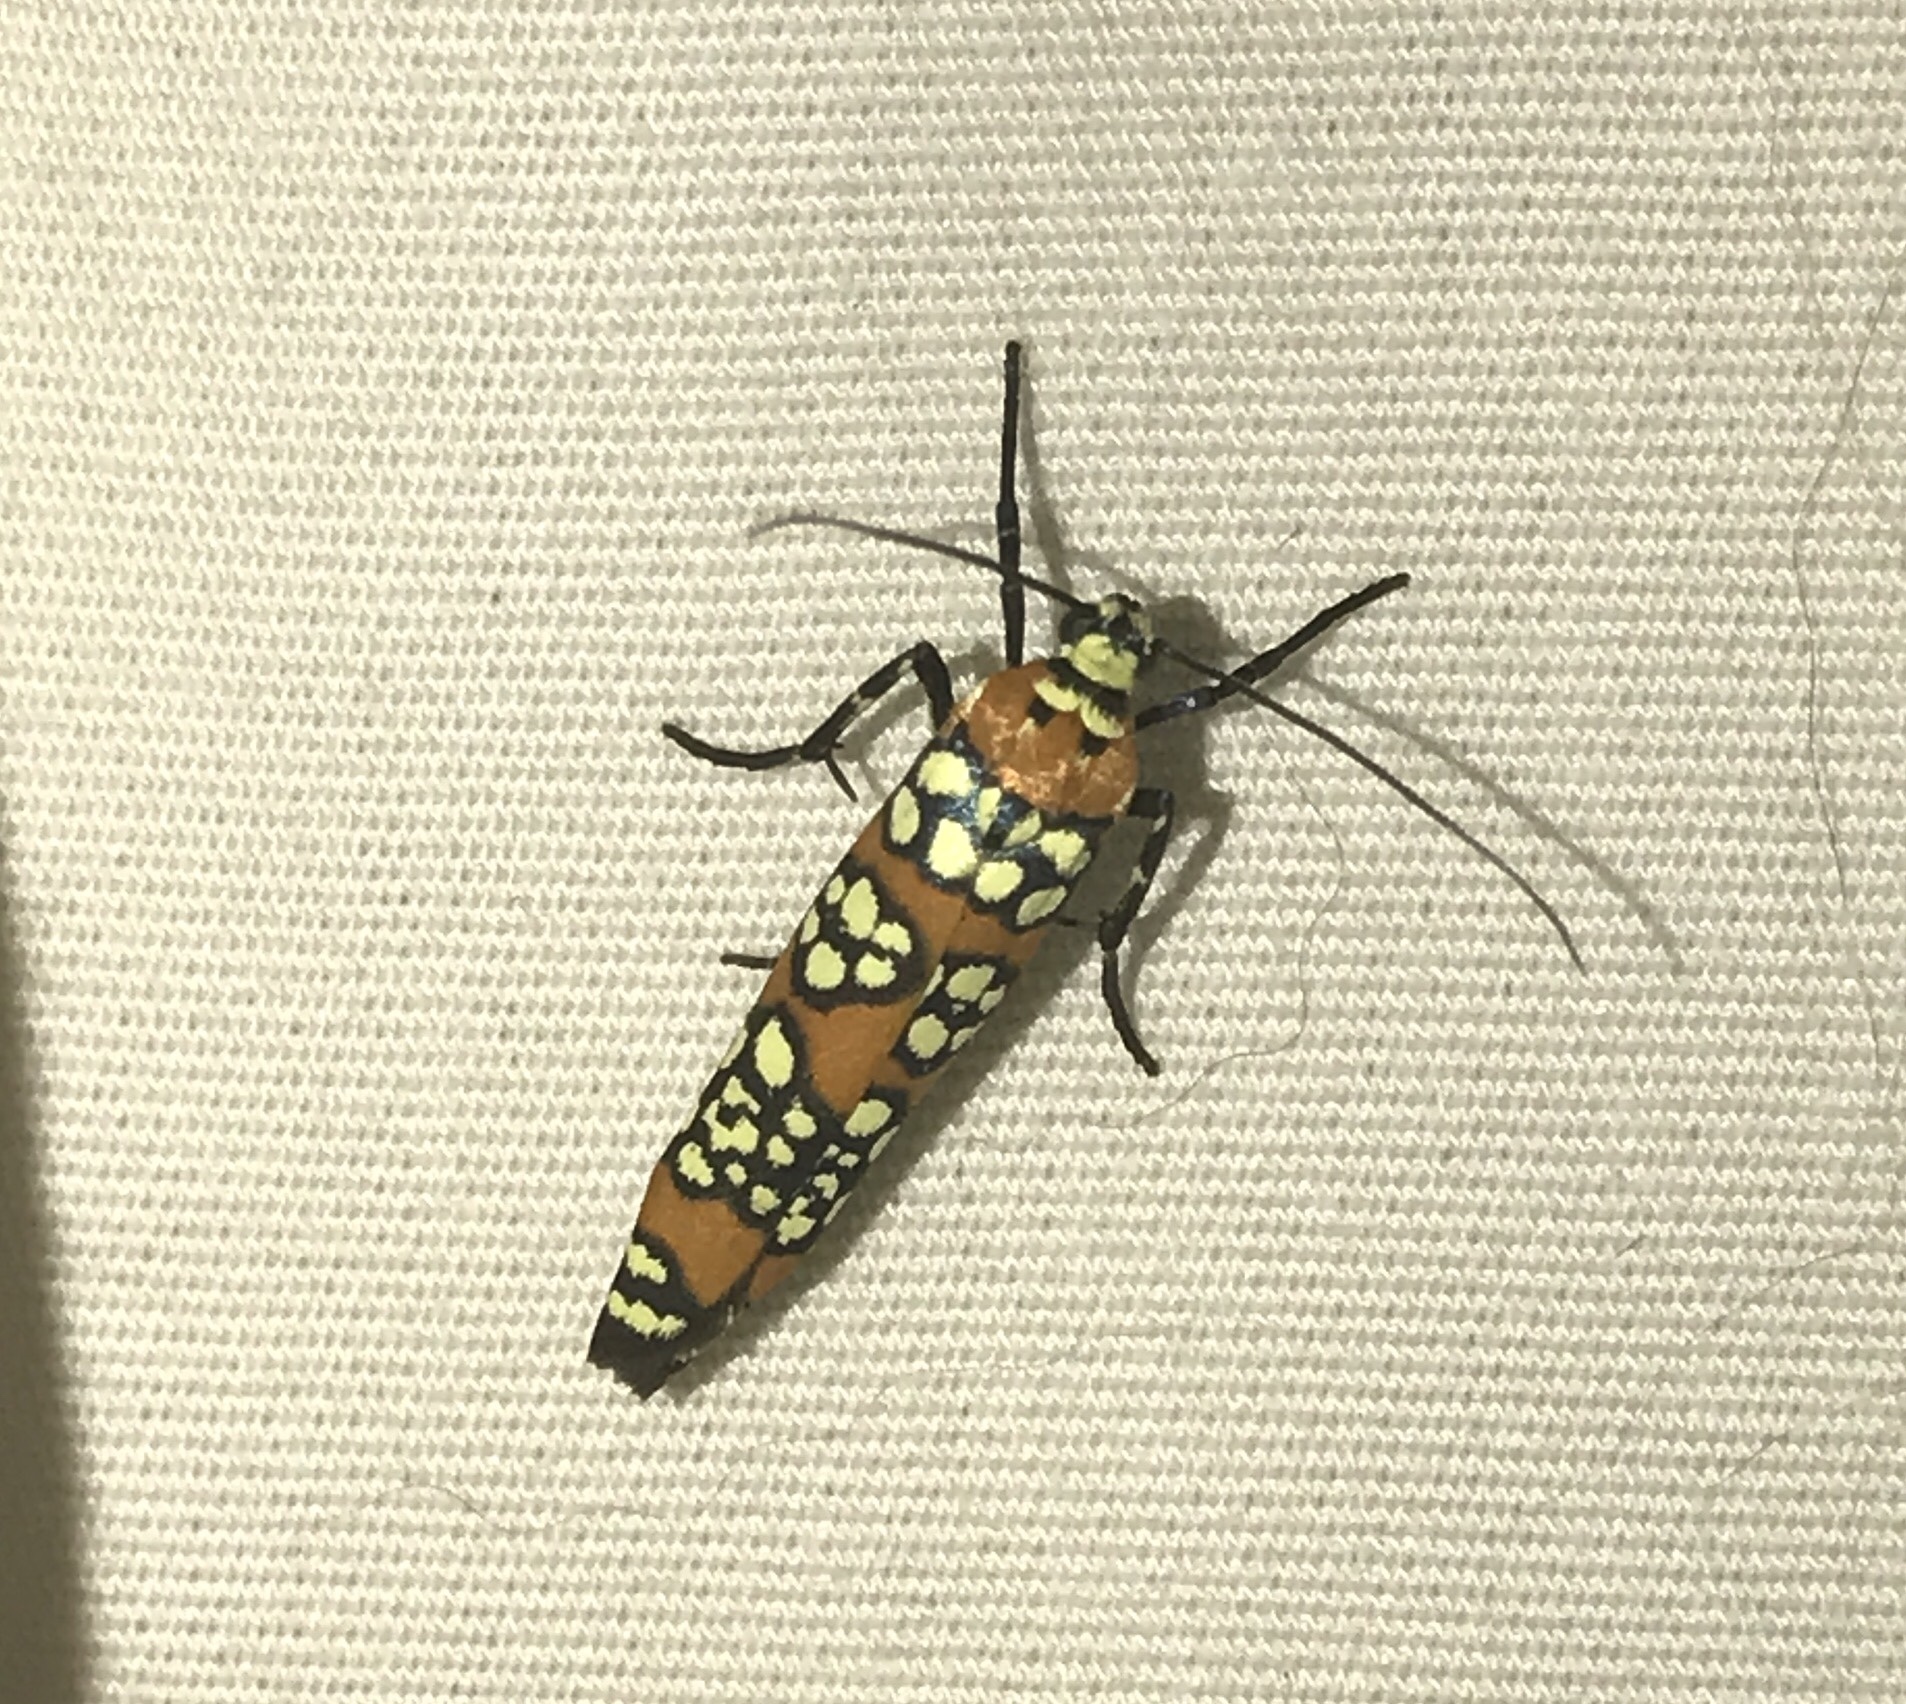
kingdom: Animalia
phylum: Arthropoda
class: Insecta
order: Lepidoptera
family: Attevidae
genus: Atteva
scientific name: Atteva punctella
